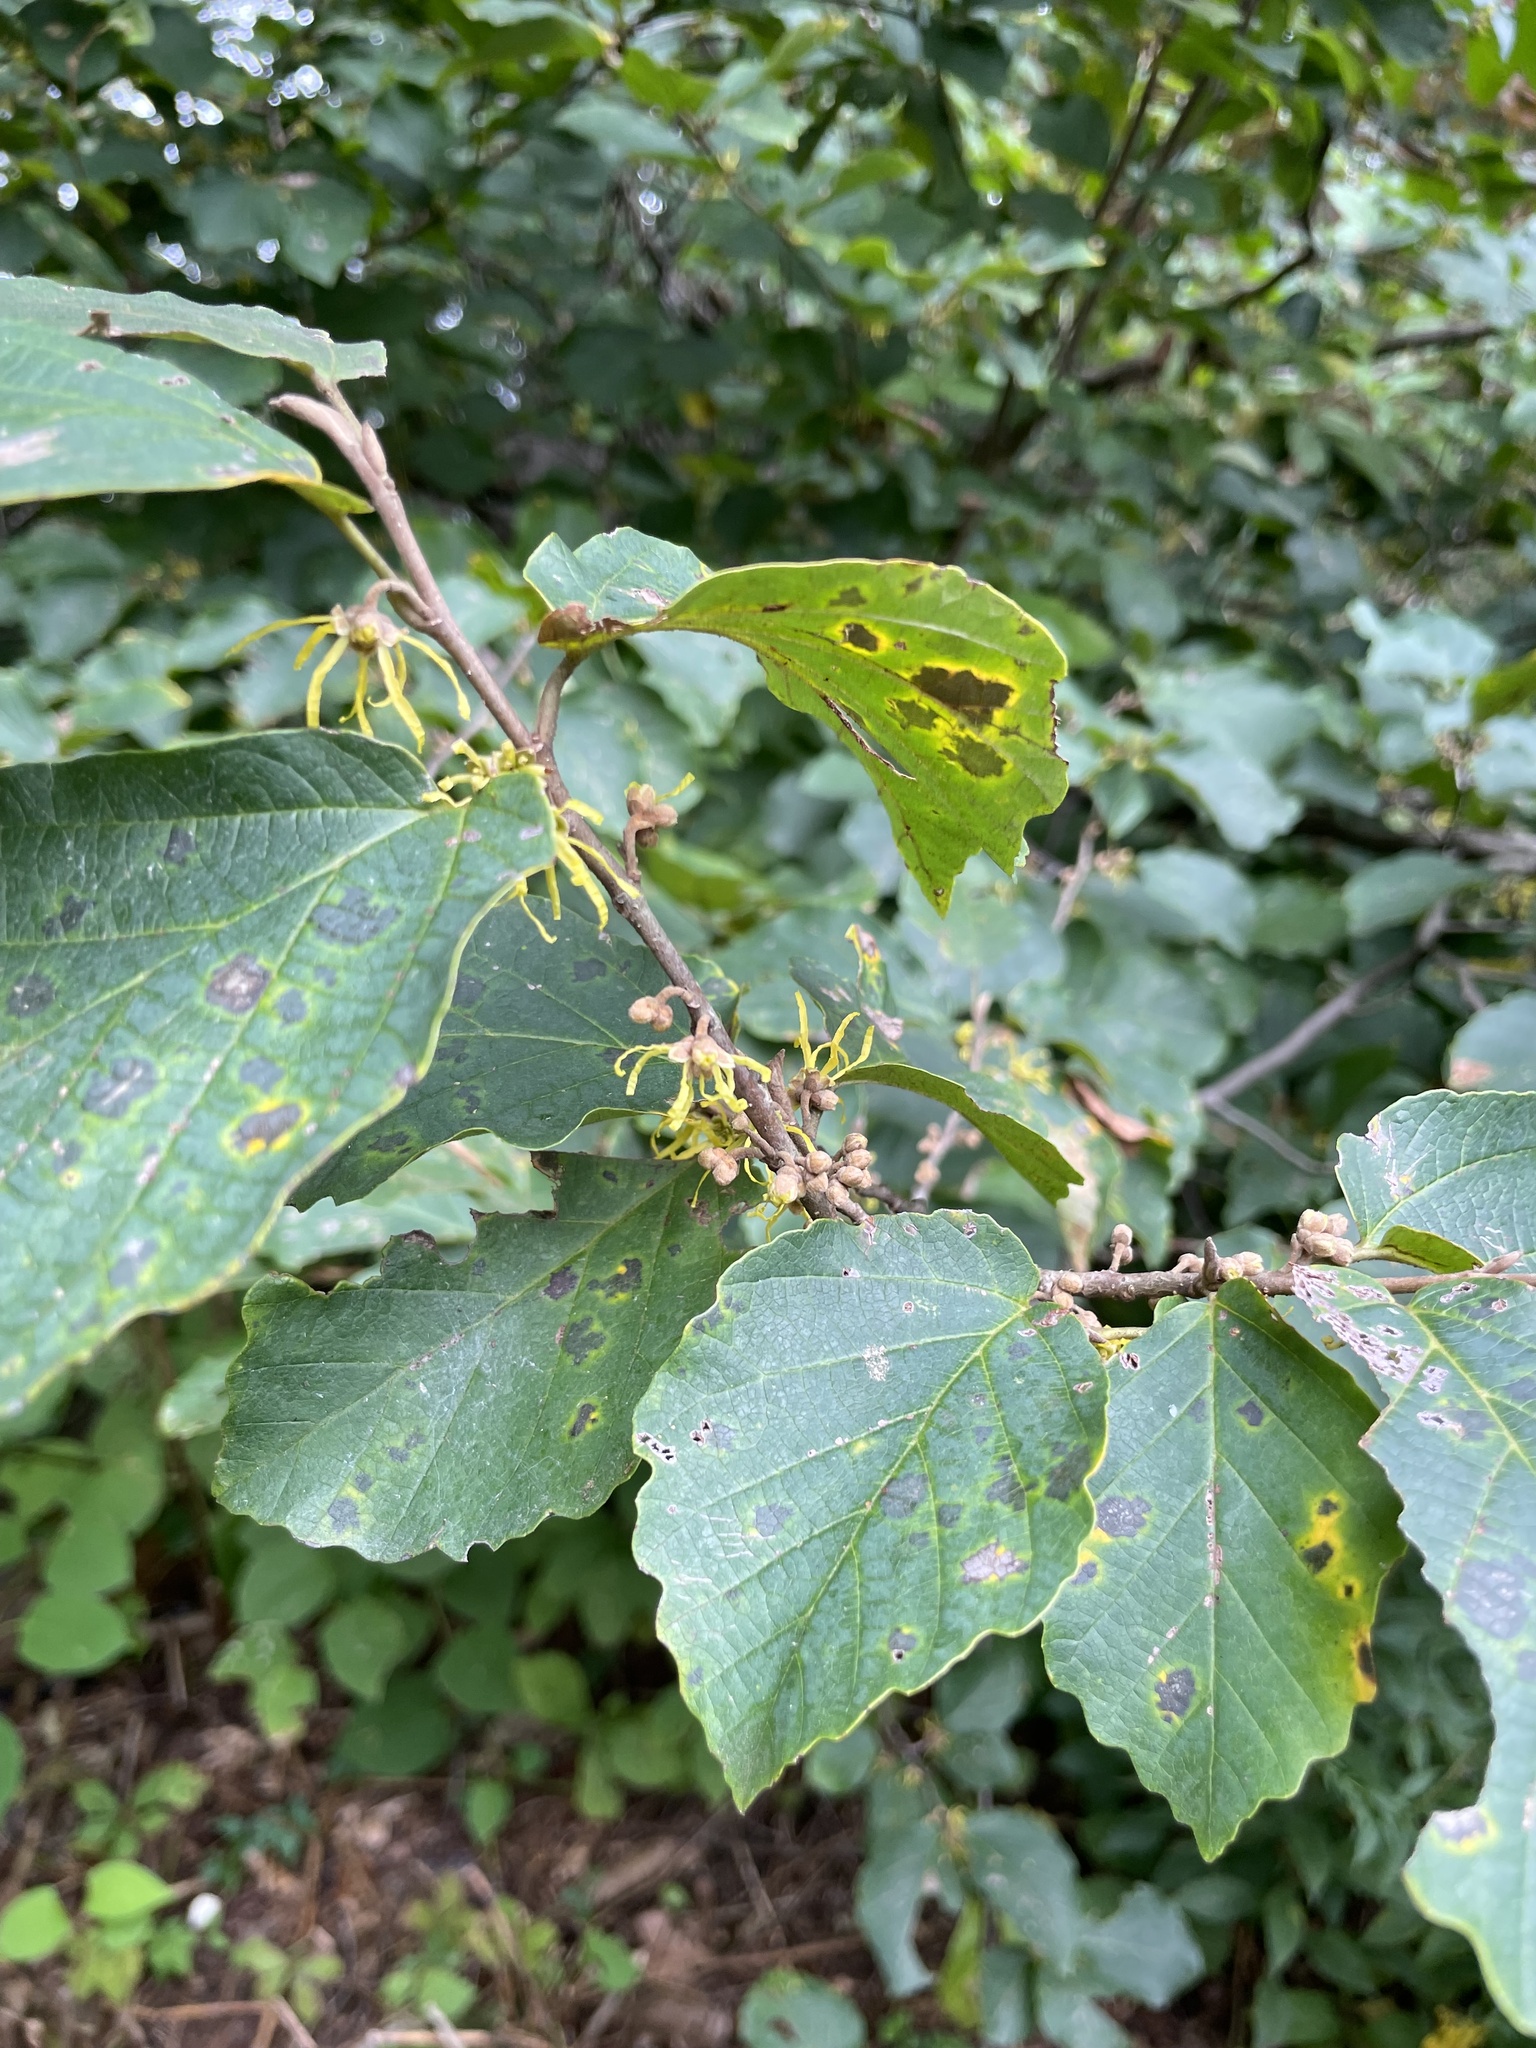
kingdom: Plantae
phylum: Tracheophyta
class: Magnoliopsida
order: Saxifragales
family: Hamamelidaceae
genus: Hamamelis
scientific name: Hamamelis virginiana
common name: Witch-hazel
